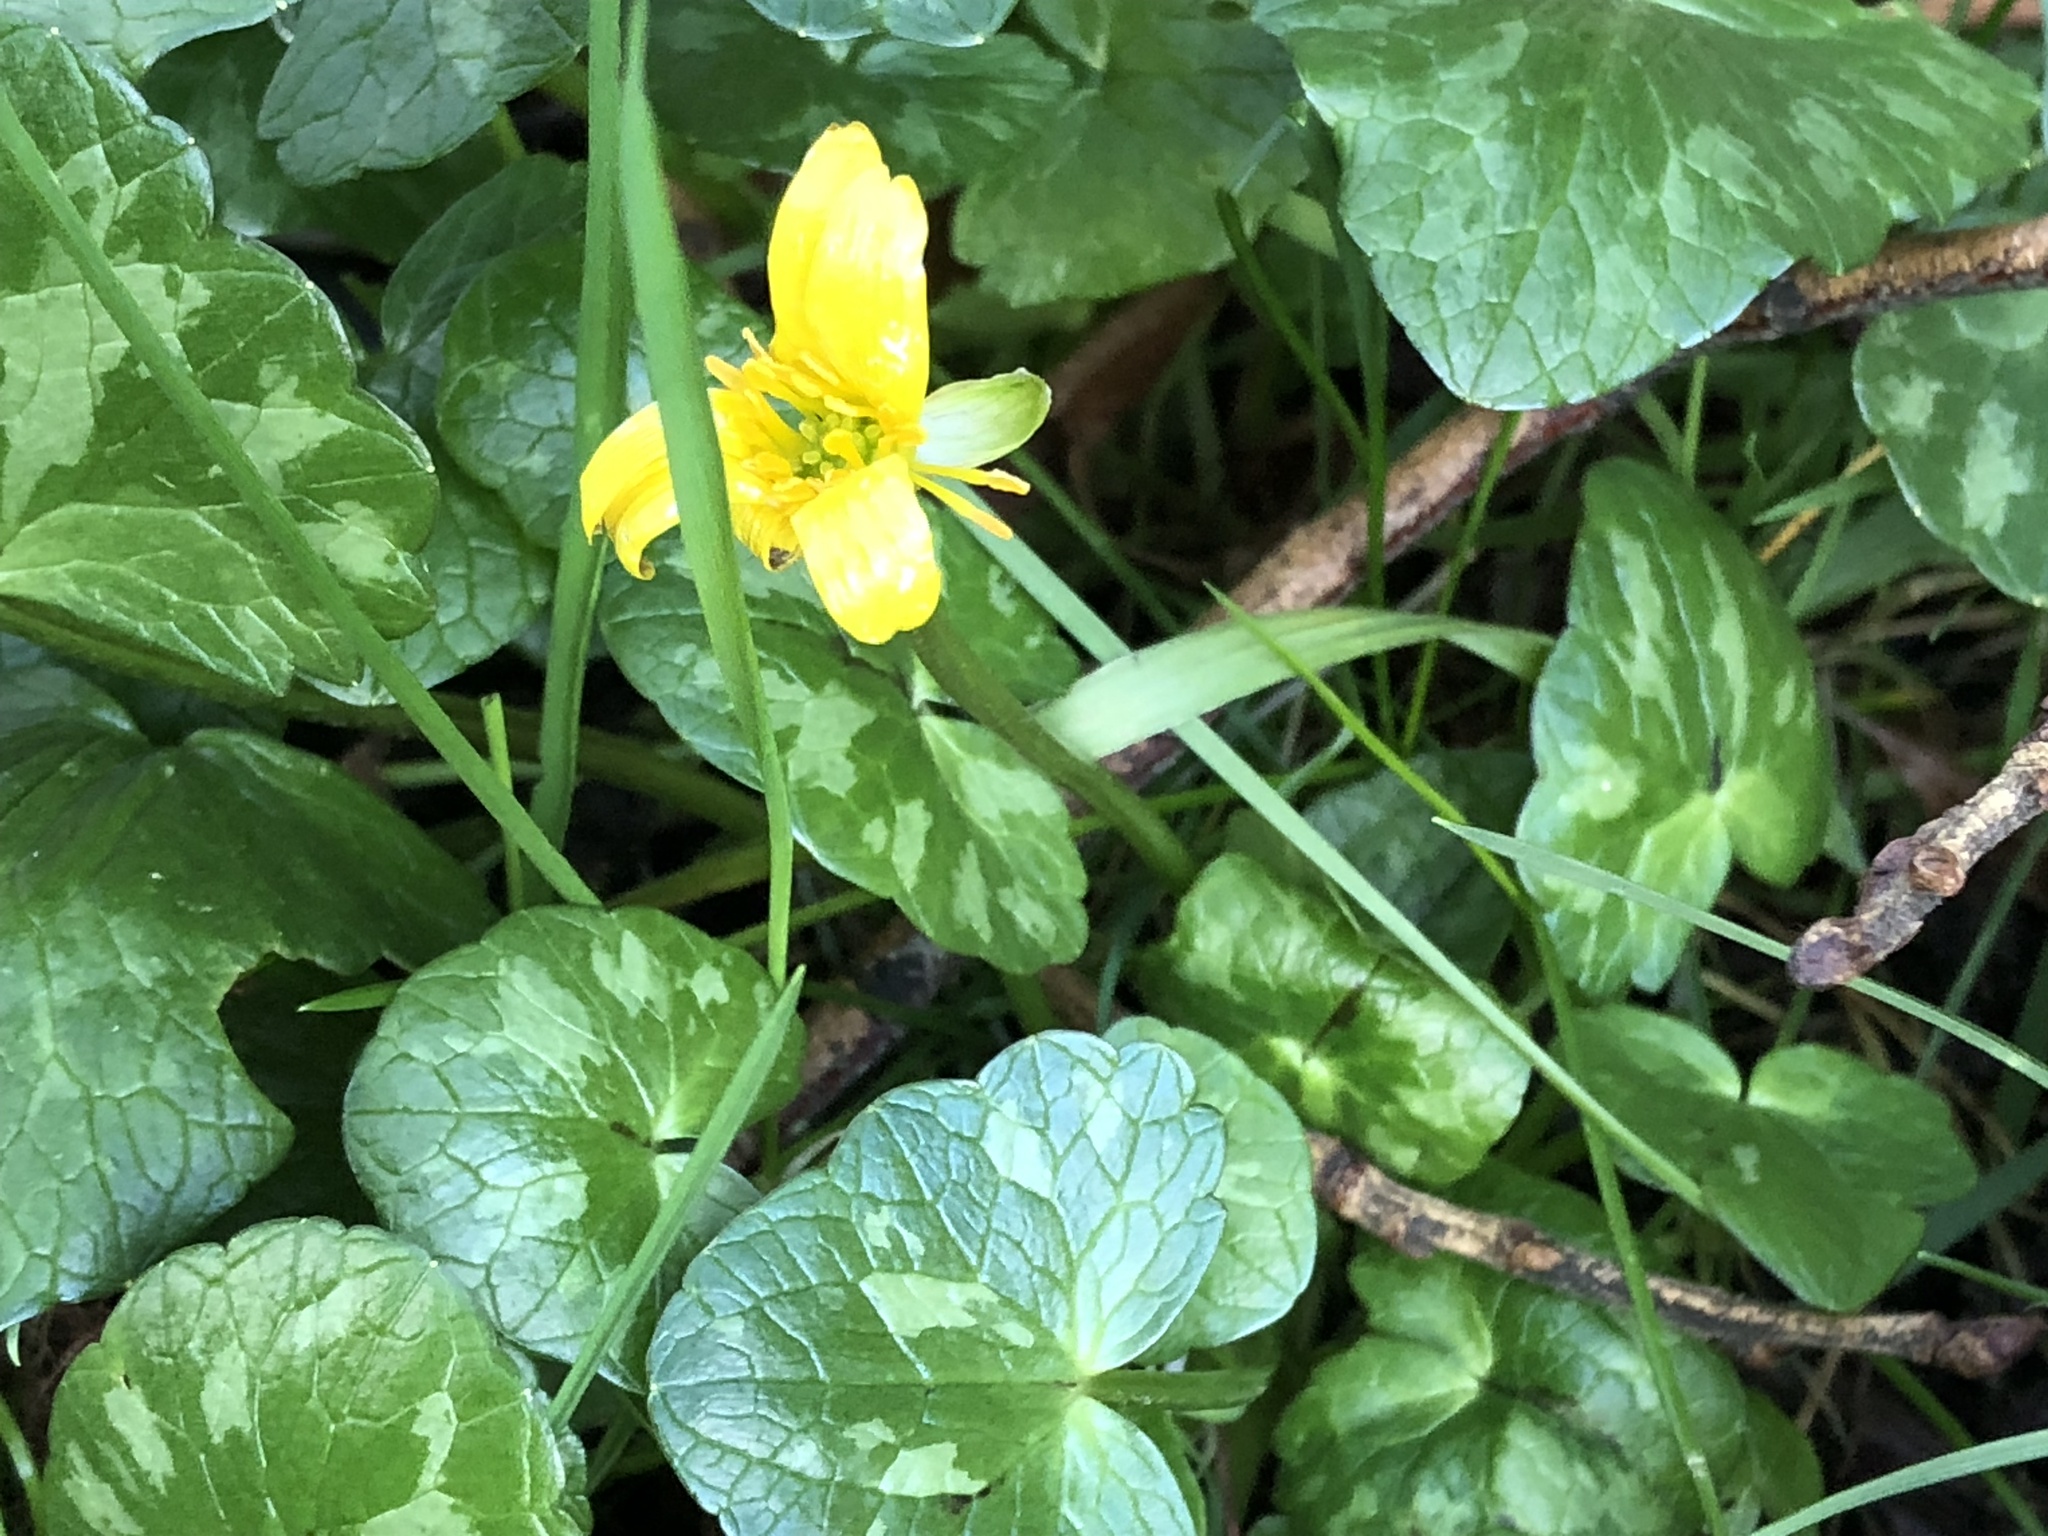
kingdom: Plantae
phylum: Tracheophyta
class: Magnoliopsida
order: Ranunculales
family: Ranunculaceae
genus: Ficaria
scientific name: Ficaria verna
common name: Lesser celandine
